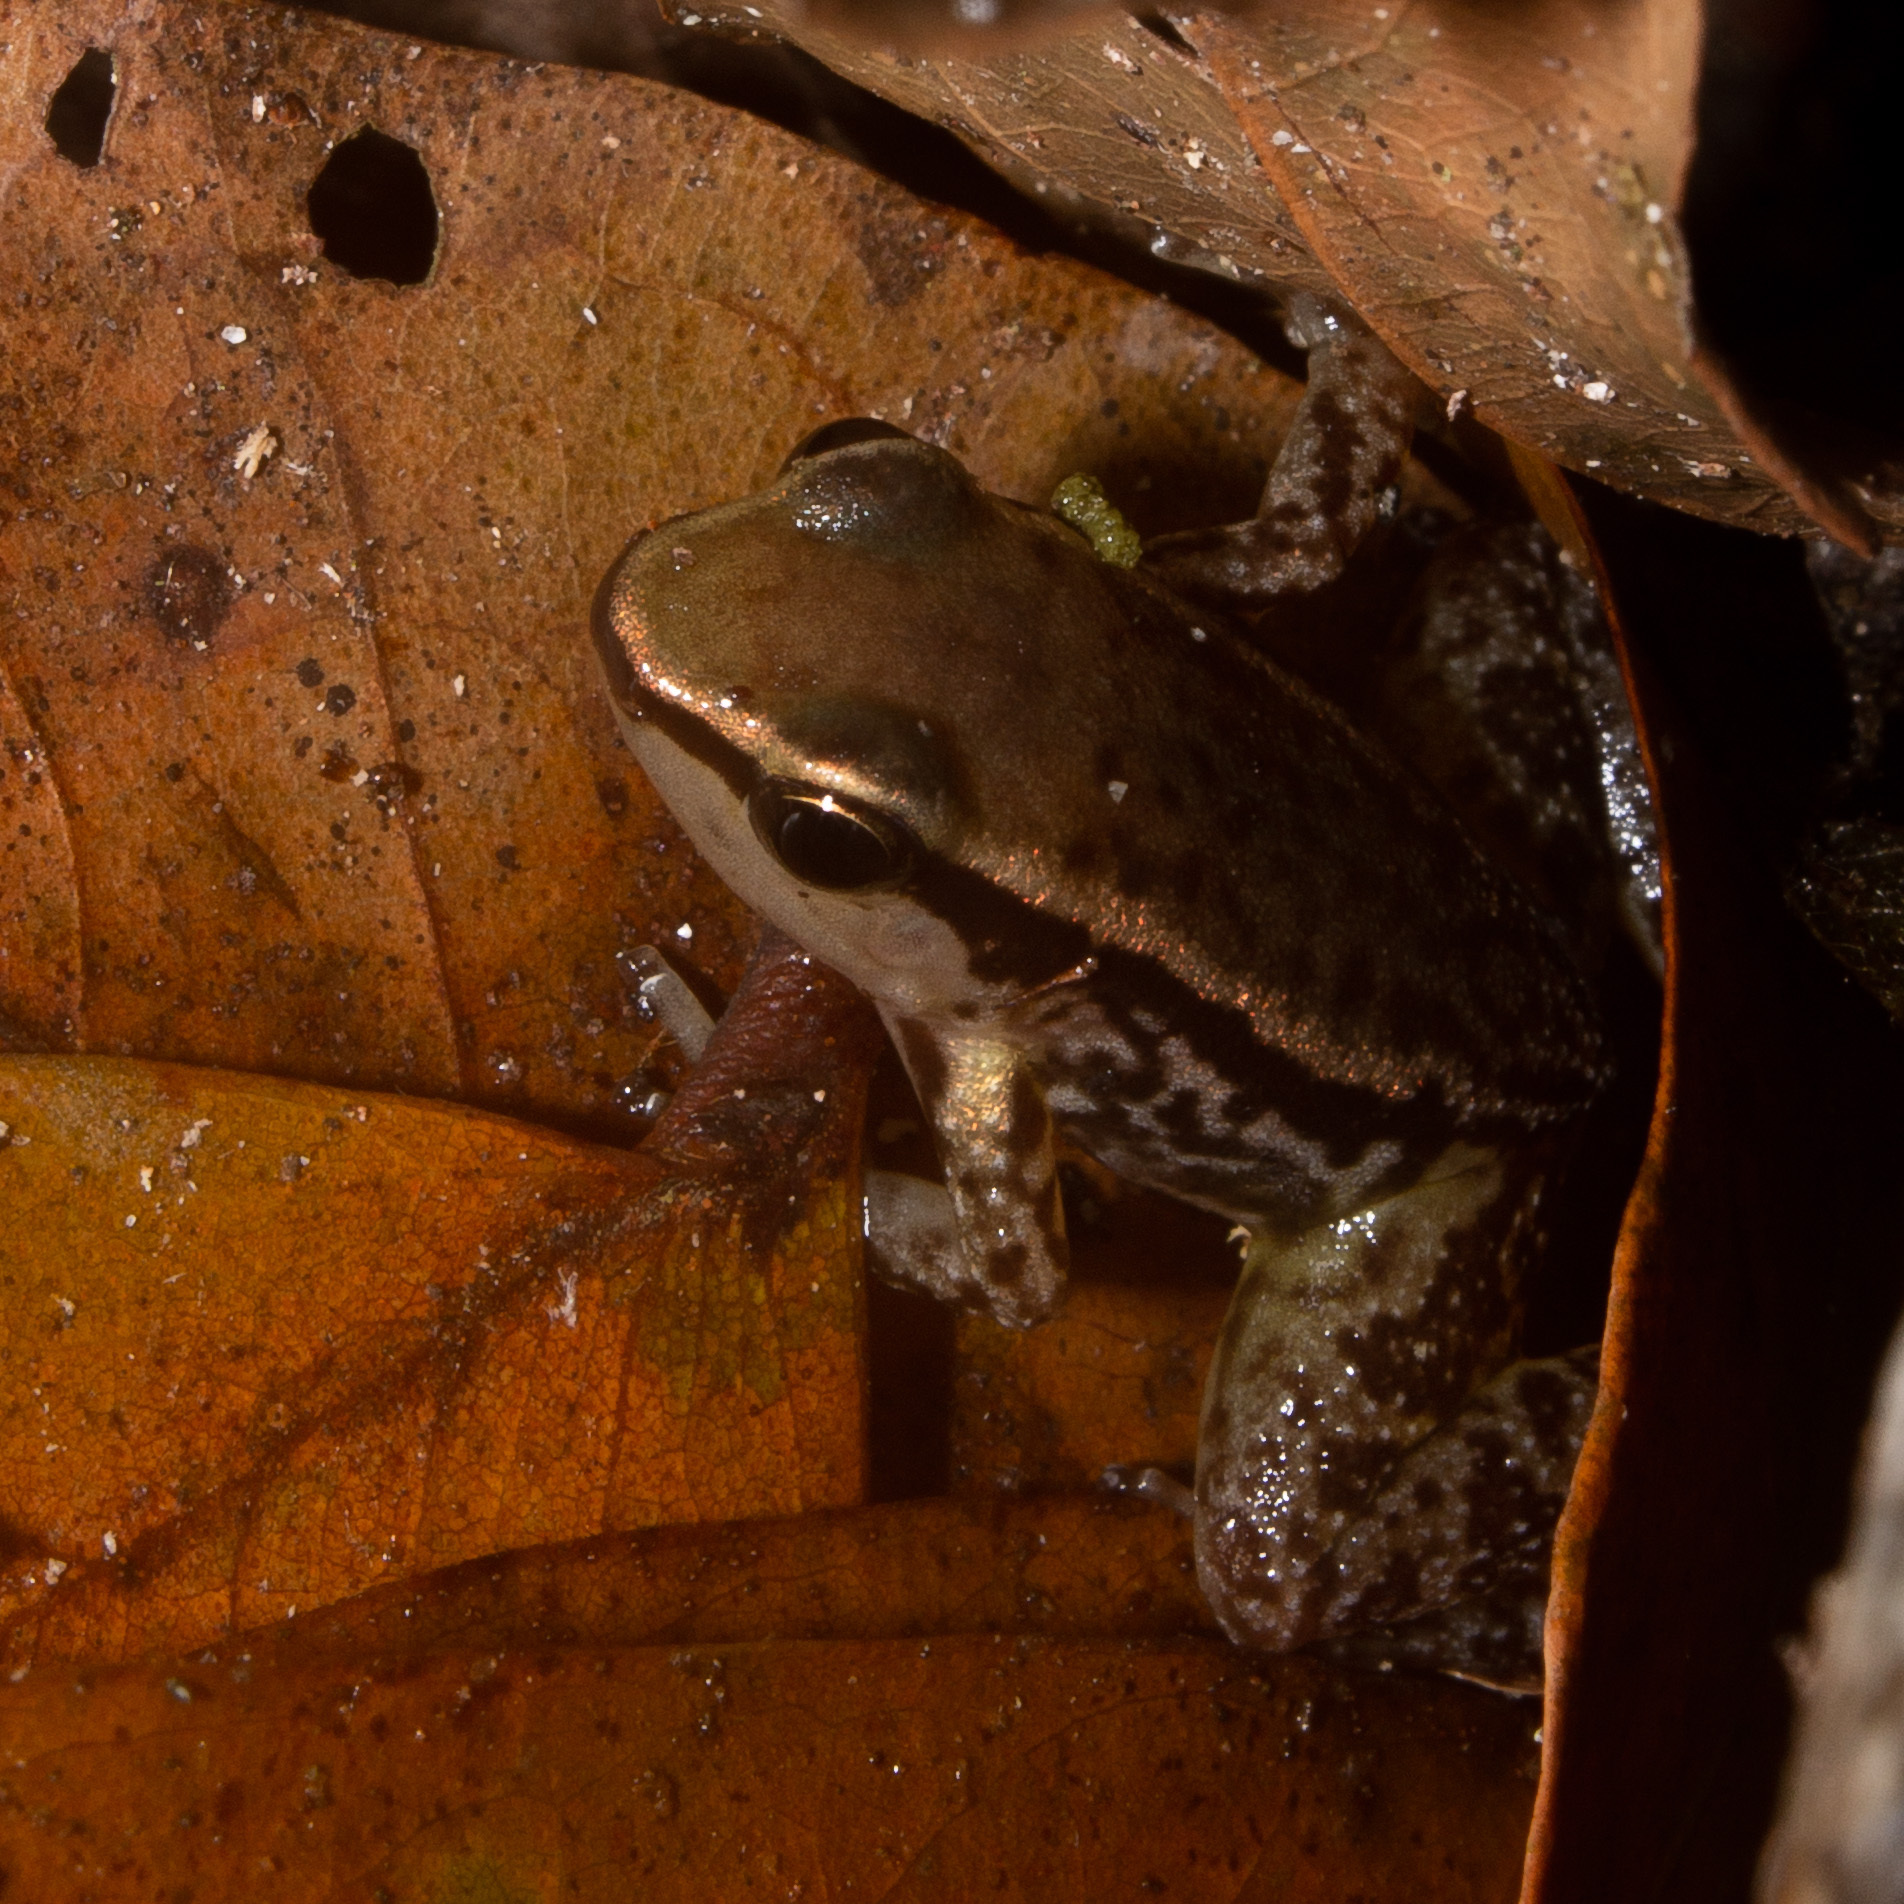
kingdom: Animalia
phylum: Chordata
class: Amphibia
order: Anura
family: Dendrobatidae
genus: Colostethus
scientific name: Colostethus ruthveni
